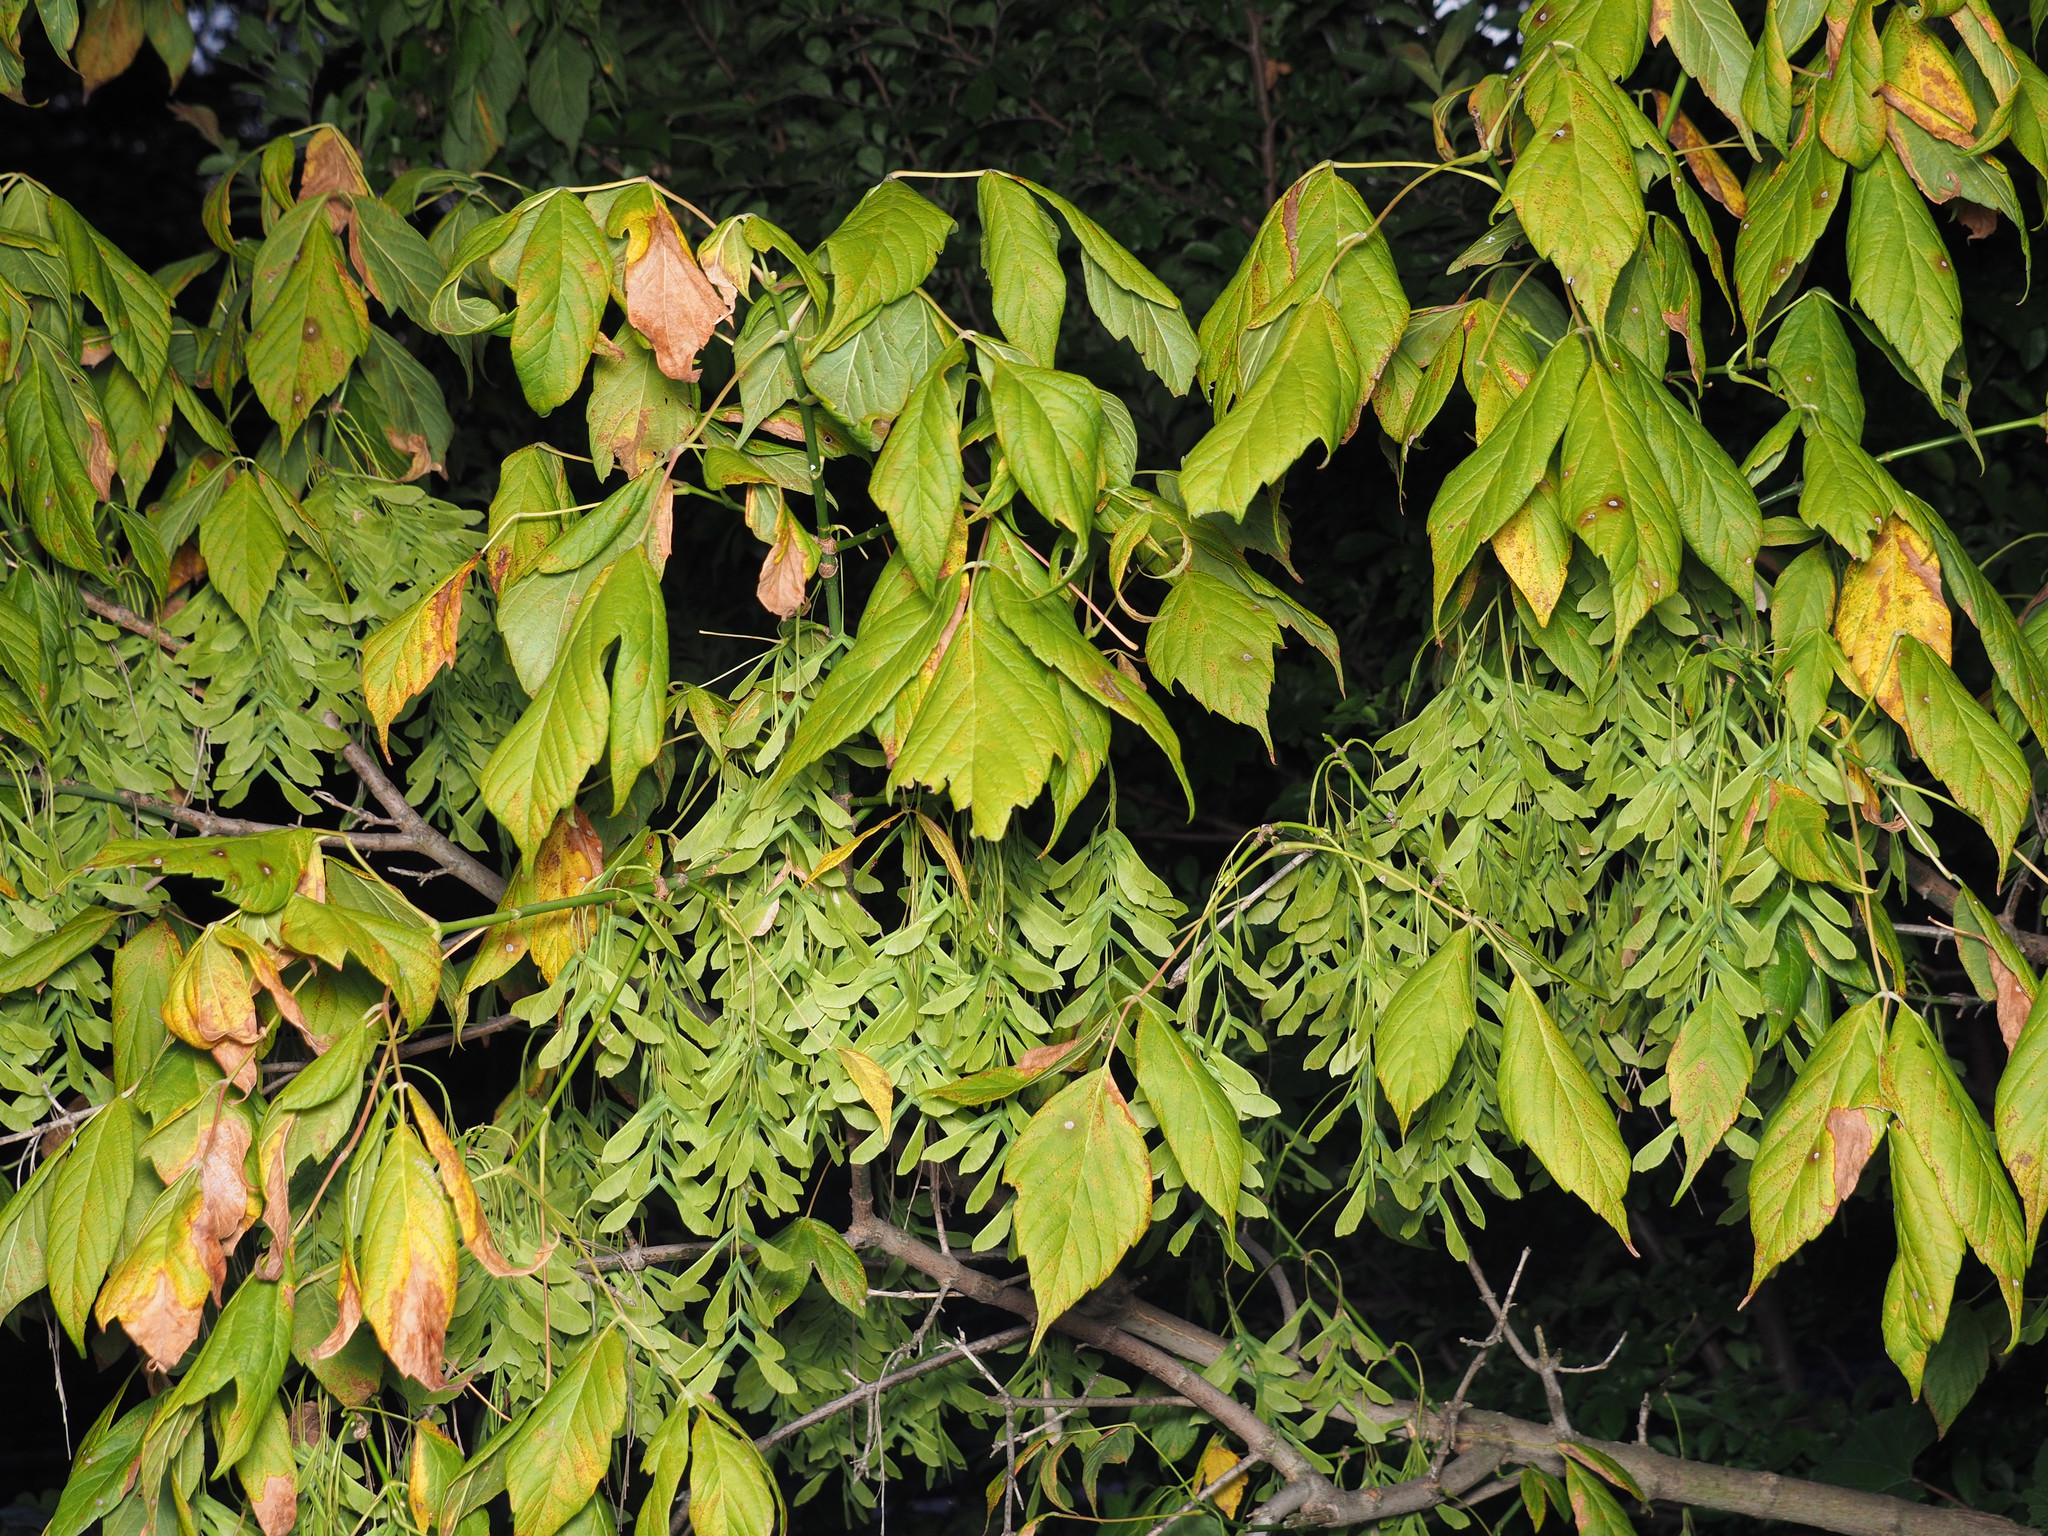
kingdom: Plantae
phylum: Tracheophyta
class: Magnoliopsida
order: Sapindales
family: Sapindaceae
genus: Acer
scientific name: Acer negundo
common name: Ashleaf maple
